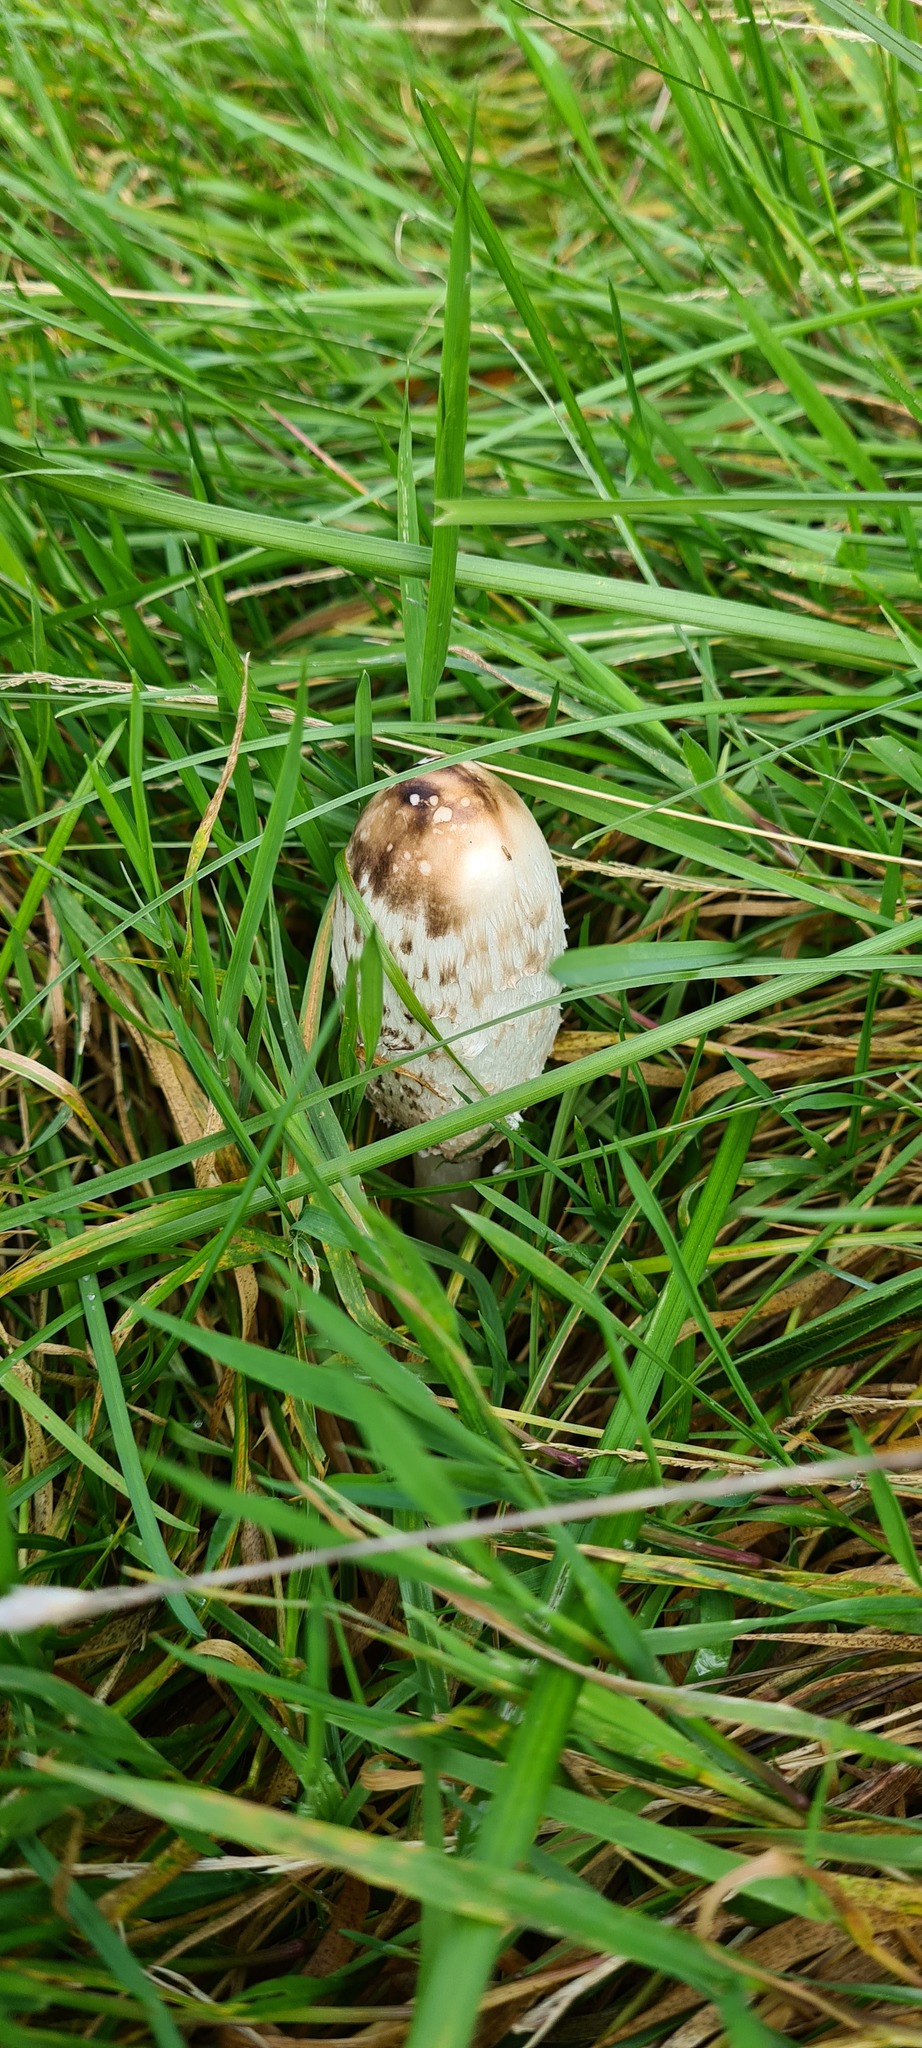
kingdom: Fungi
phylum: Basidiomycota
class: Agaricomycetes
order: Agaricales
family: Agaricaceae
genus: Coprinus
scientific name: Coprinus comatus
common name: Lawyer's wig
